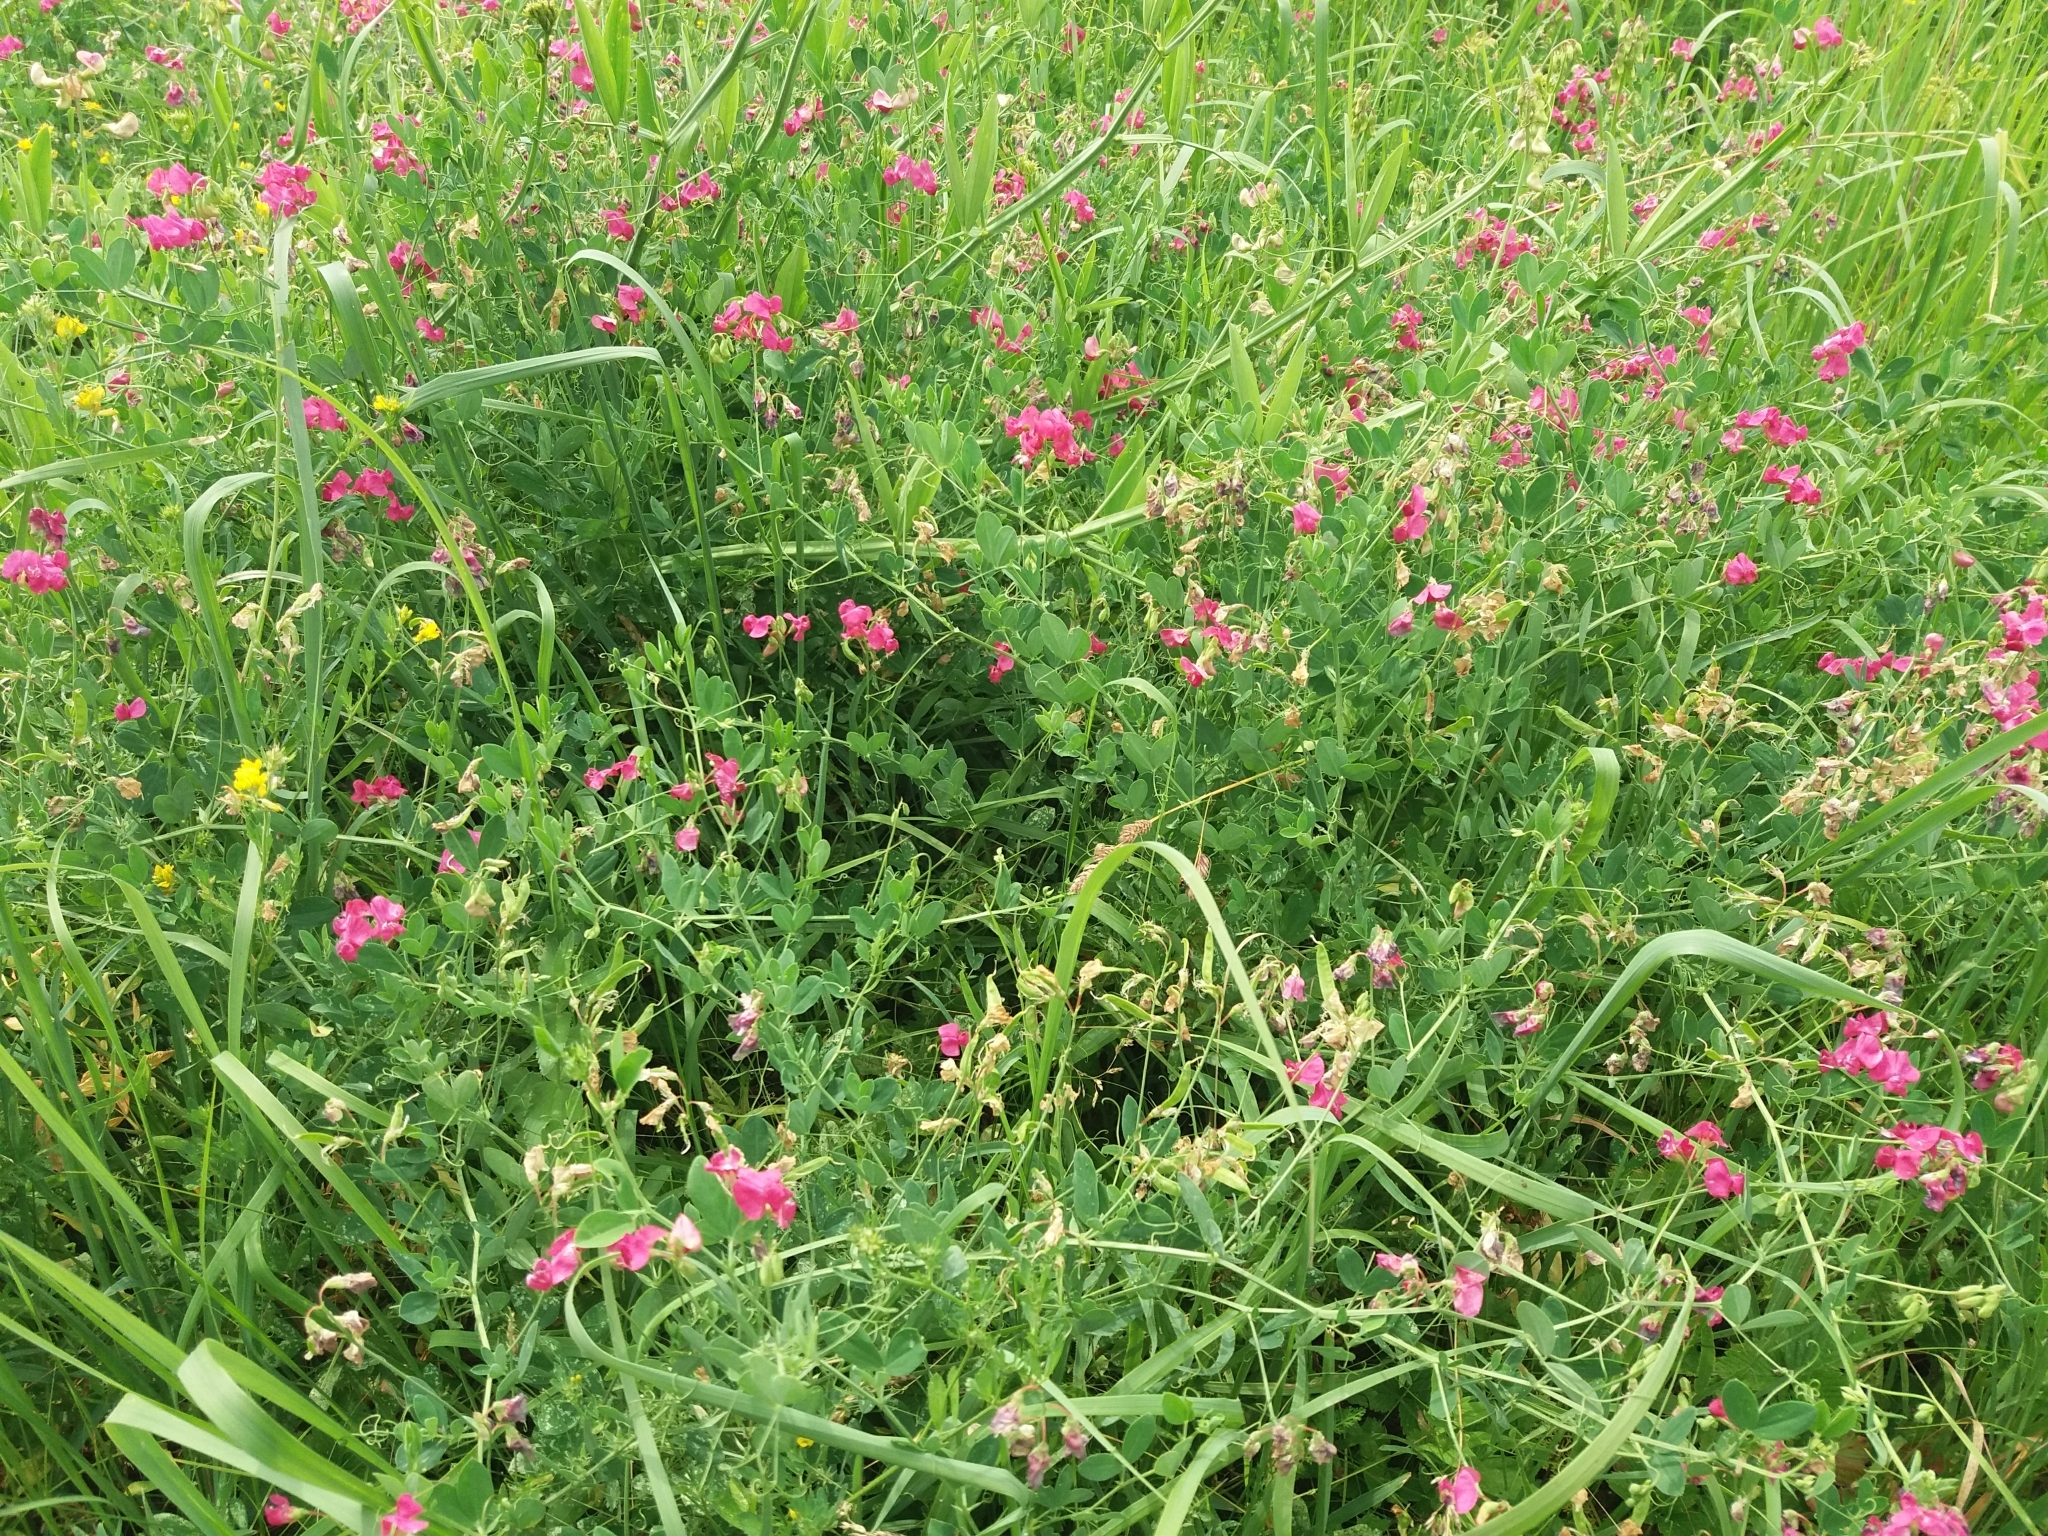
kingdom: Plantae
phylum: Tracheophyta
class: Magnoliopsida
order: Fabales
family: Fabaceae
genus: Lathyrus
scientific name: Lathyrus tuberosus
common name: Tuberous pea
